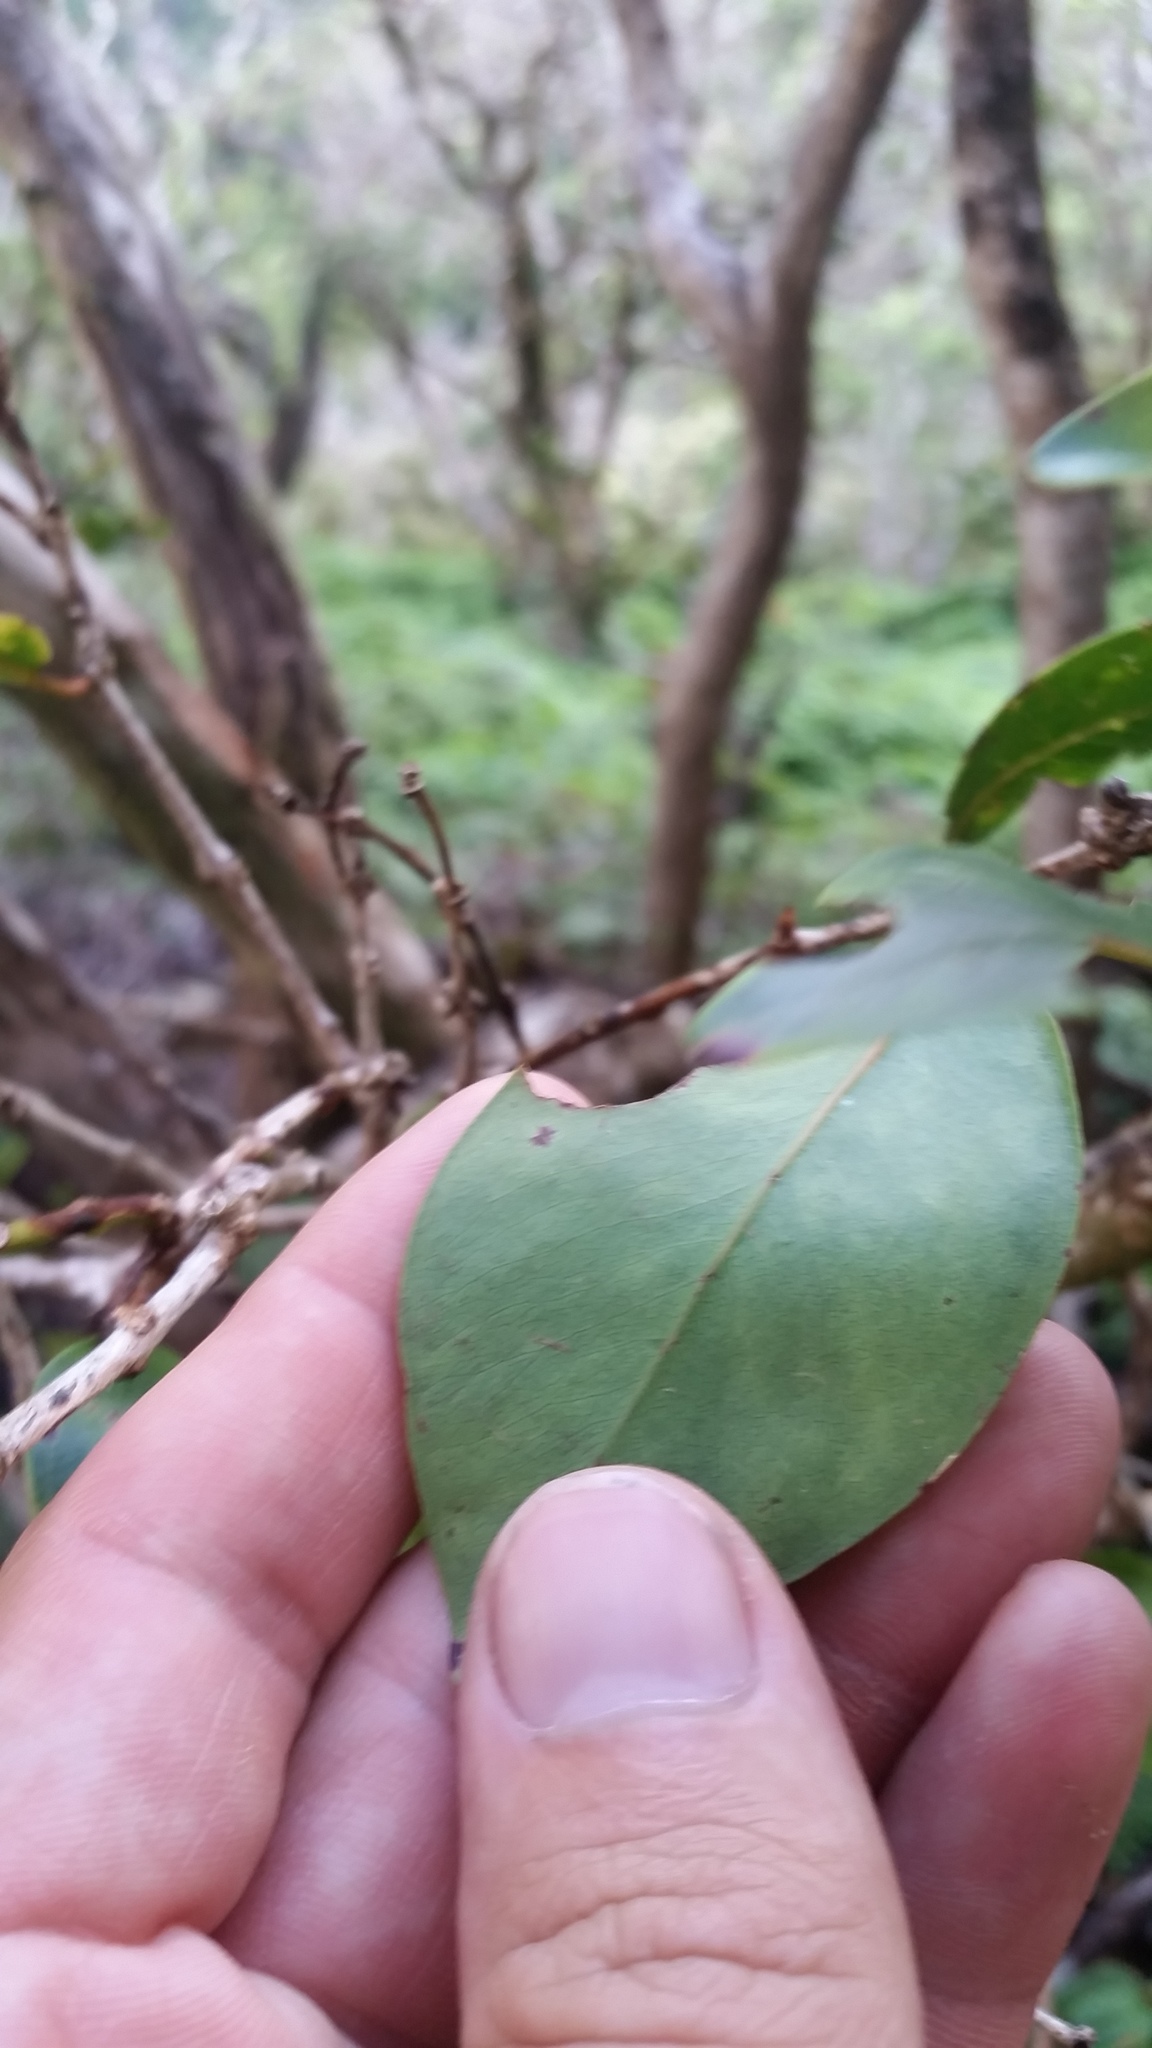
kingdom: Plantae
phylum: Tracheophyta
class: Magnoliopsida
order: Myrtales
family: Myrtaceae
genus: Metrosideros
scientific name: Metrosideros polymorpha
